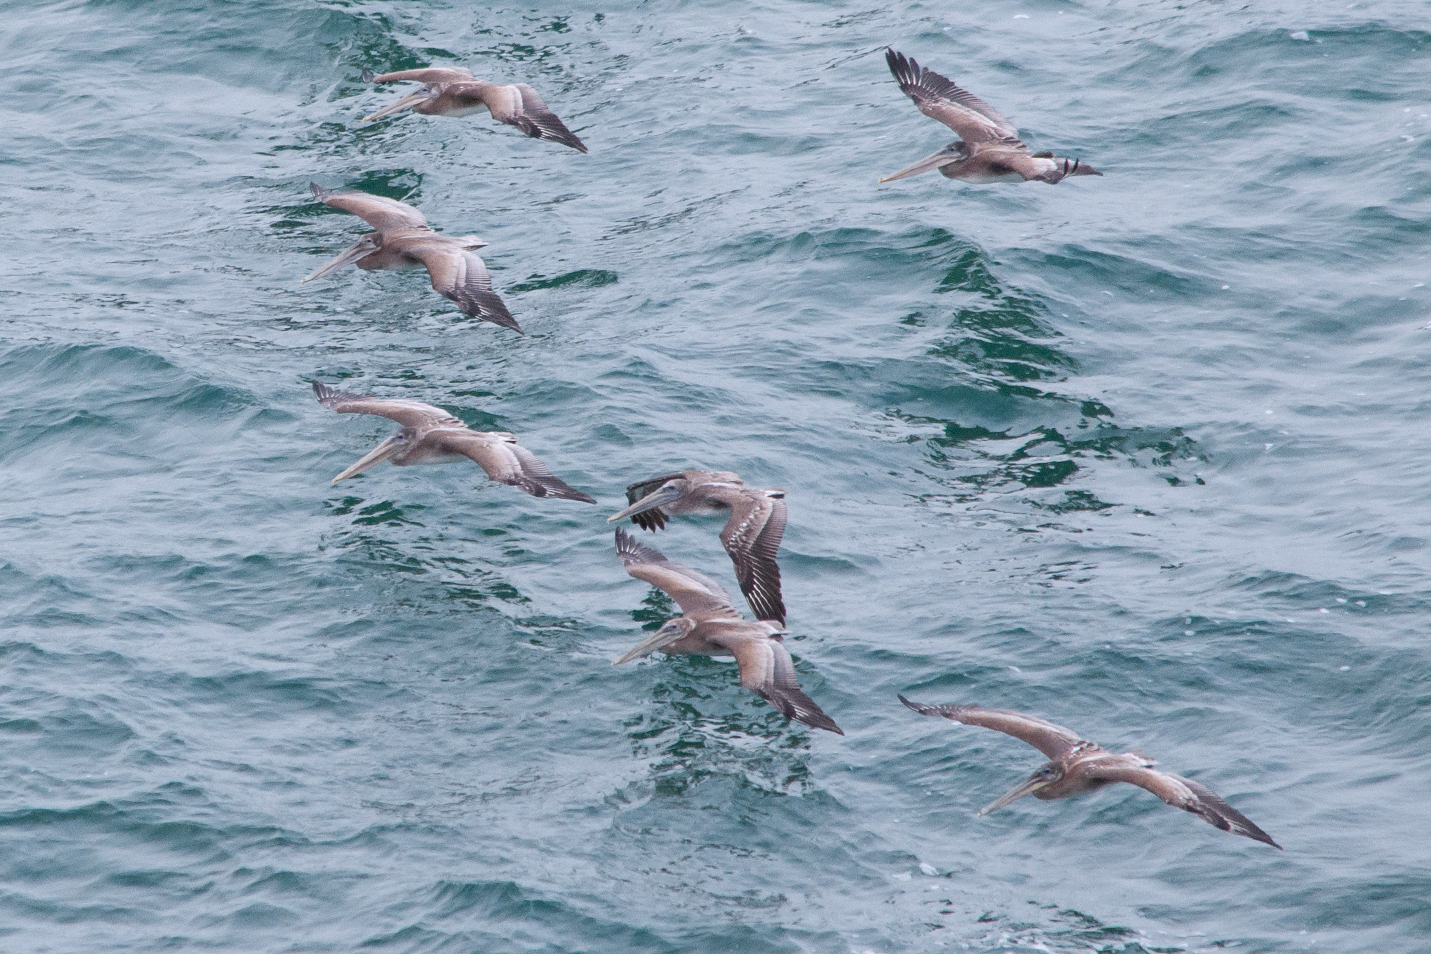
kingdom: Animalia
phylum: Chordata
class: Aves
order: Pelecaniformes
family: Pelecanidae
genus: Pelecanus
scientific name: Pelecanus occidentalis
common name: Brown pelican
